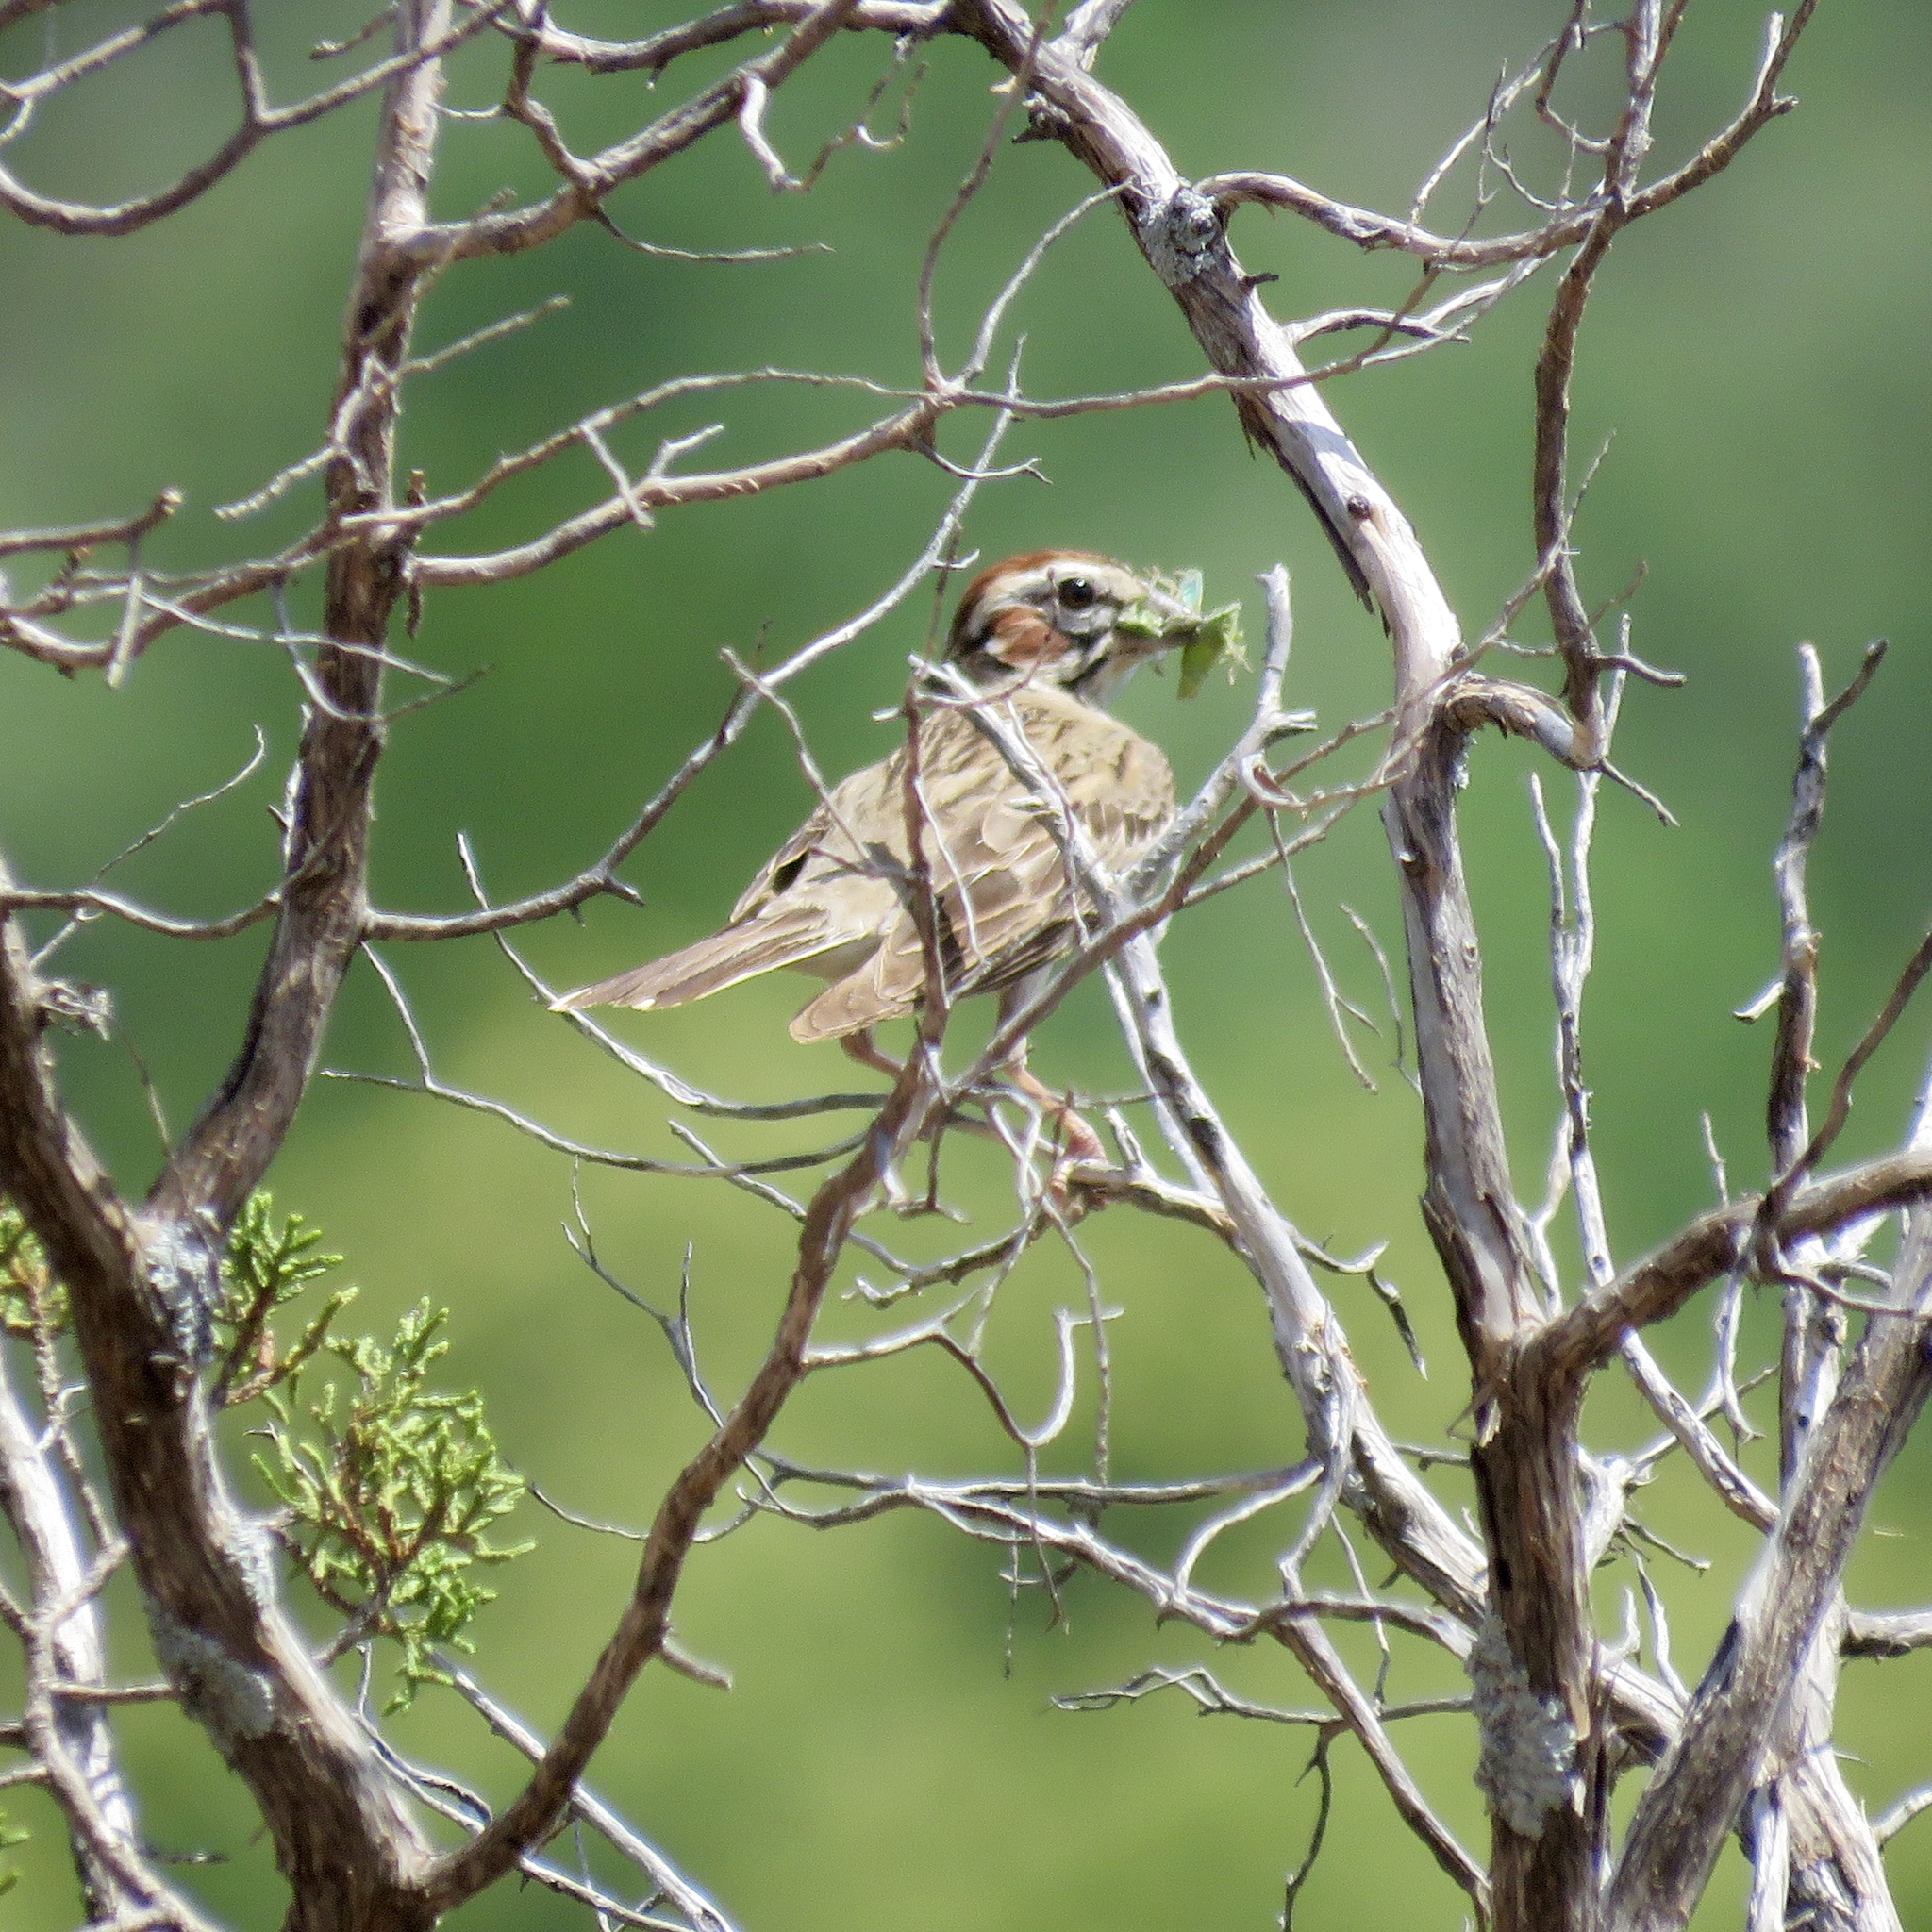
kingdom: Animalia
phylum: Chordata
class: Aves
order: Passeriformes
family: Passerellidae
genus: Chondestes
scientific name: Chondestes grammacus
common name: Lark sparrow
